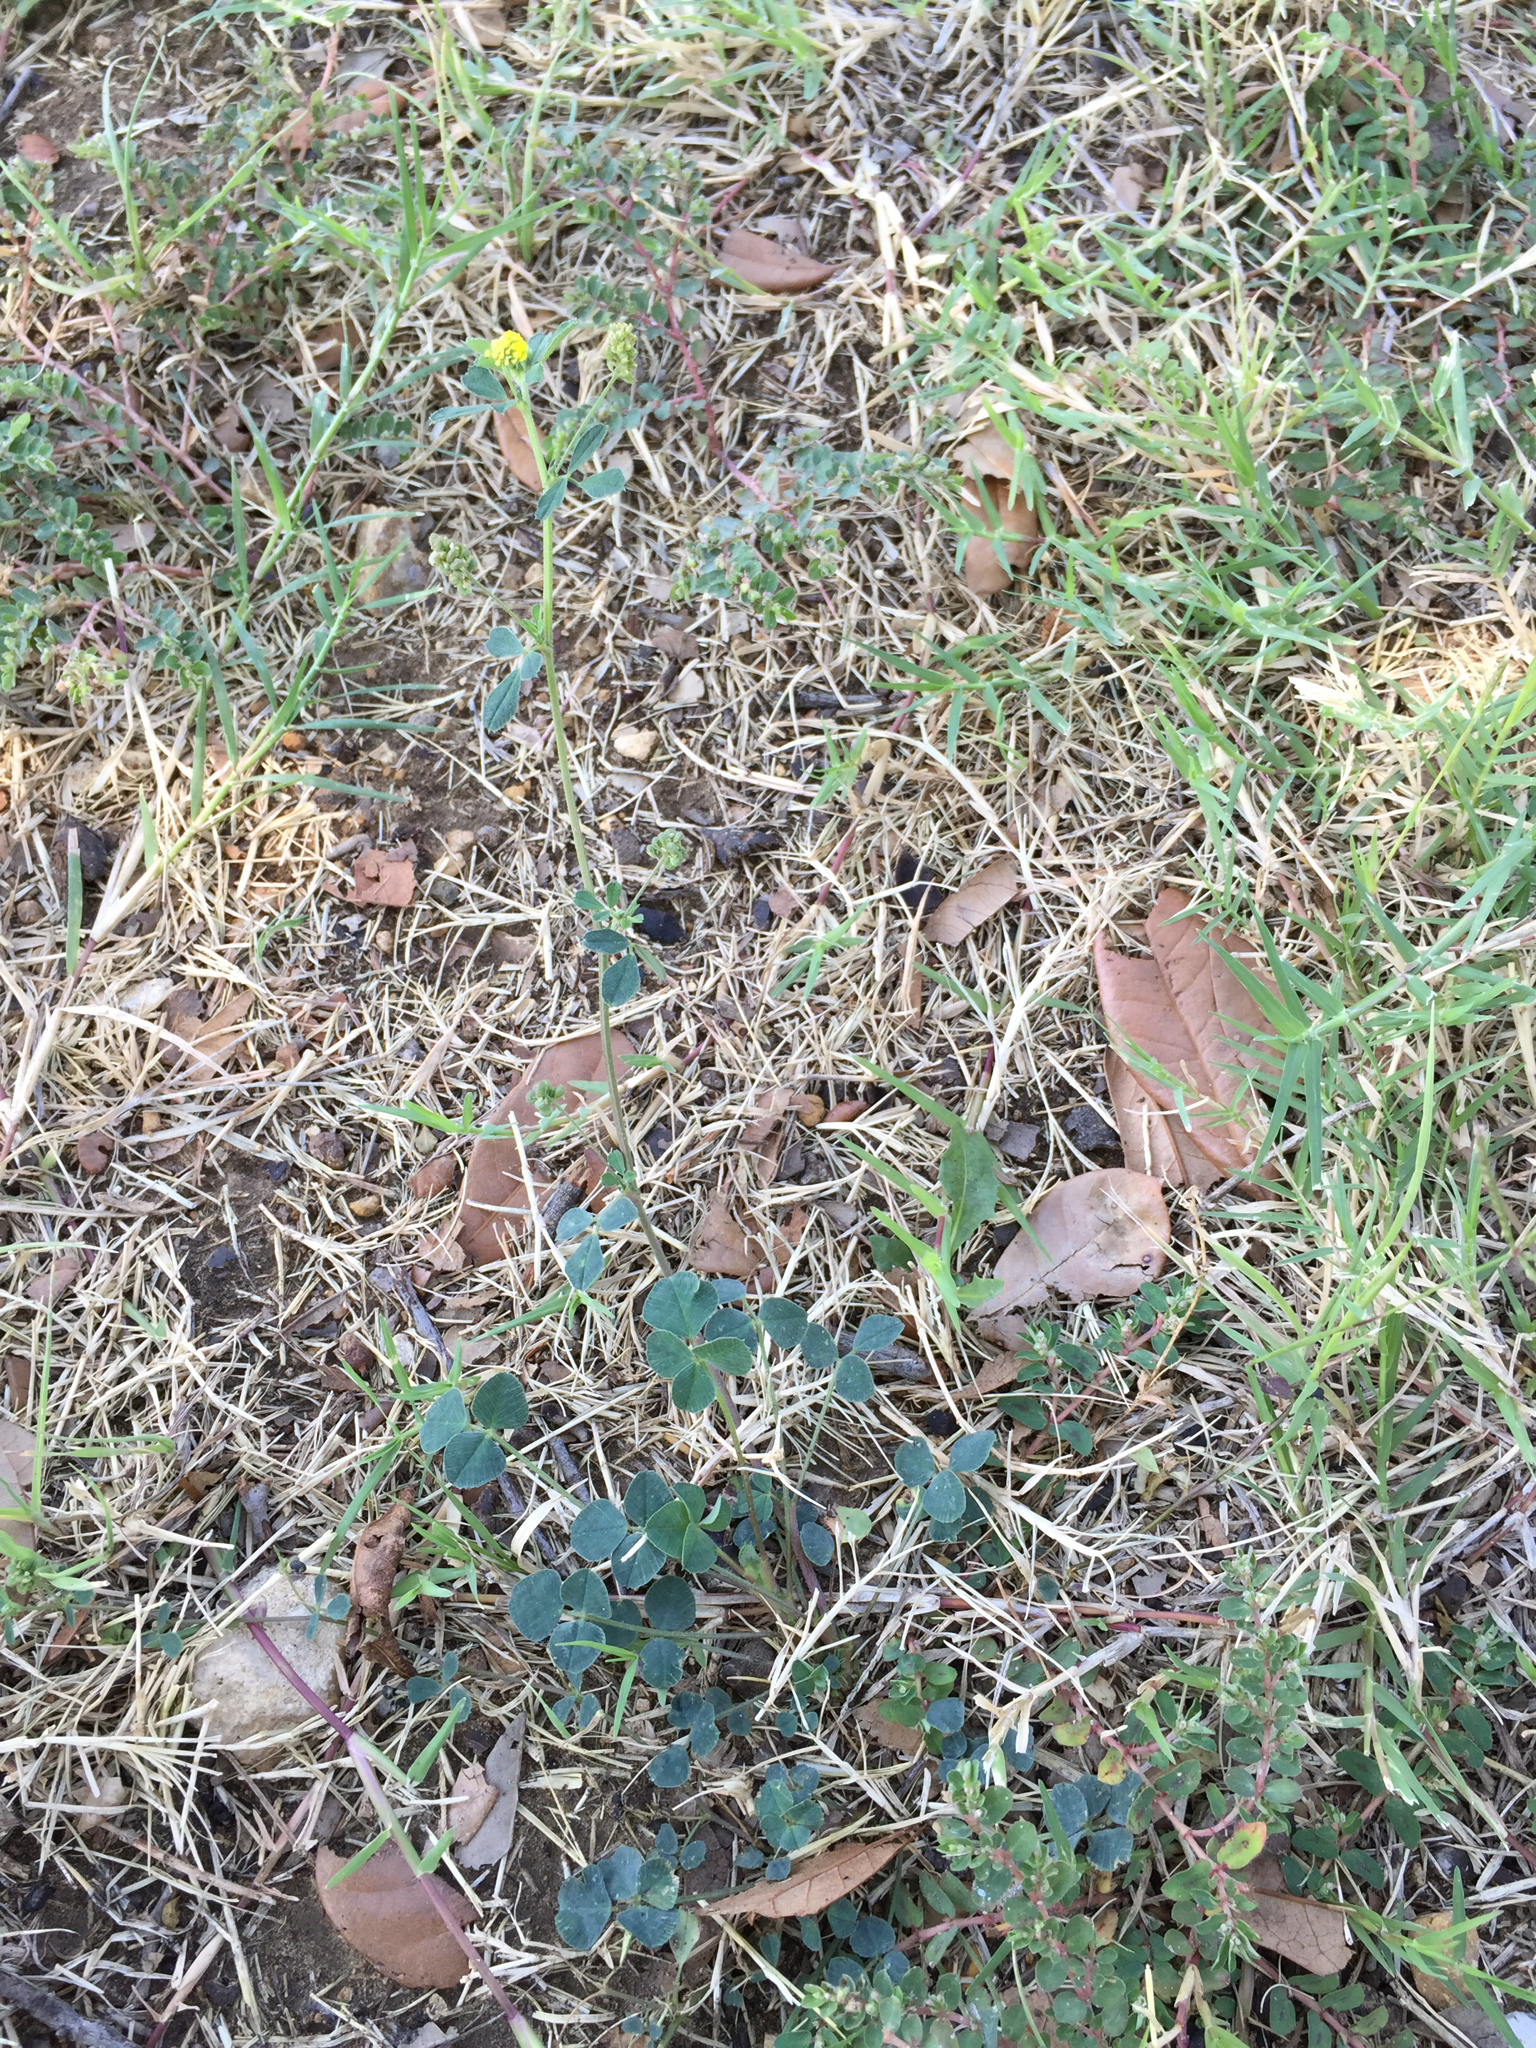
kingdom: Plantae
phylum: Tracheophyta
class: Magnoliopsida
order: Fabales
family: Fabaceae
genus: Medicago
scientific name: Medicago lupulina
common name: Black medick
